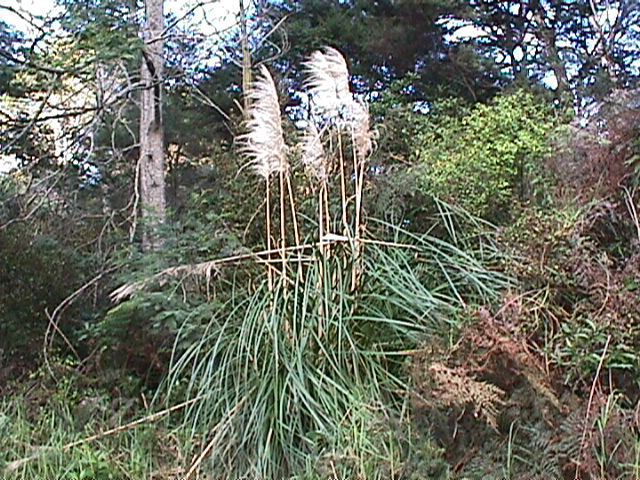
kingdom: Plantae
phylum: Tracheophyta
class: Liliopsida
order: Poales
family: Poaceae
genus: Cortaderia
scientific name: Cortaderia selloana
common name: Uruguayan pampas grass
